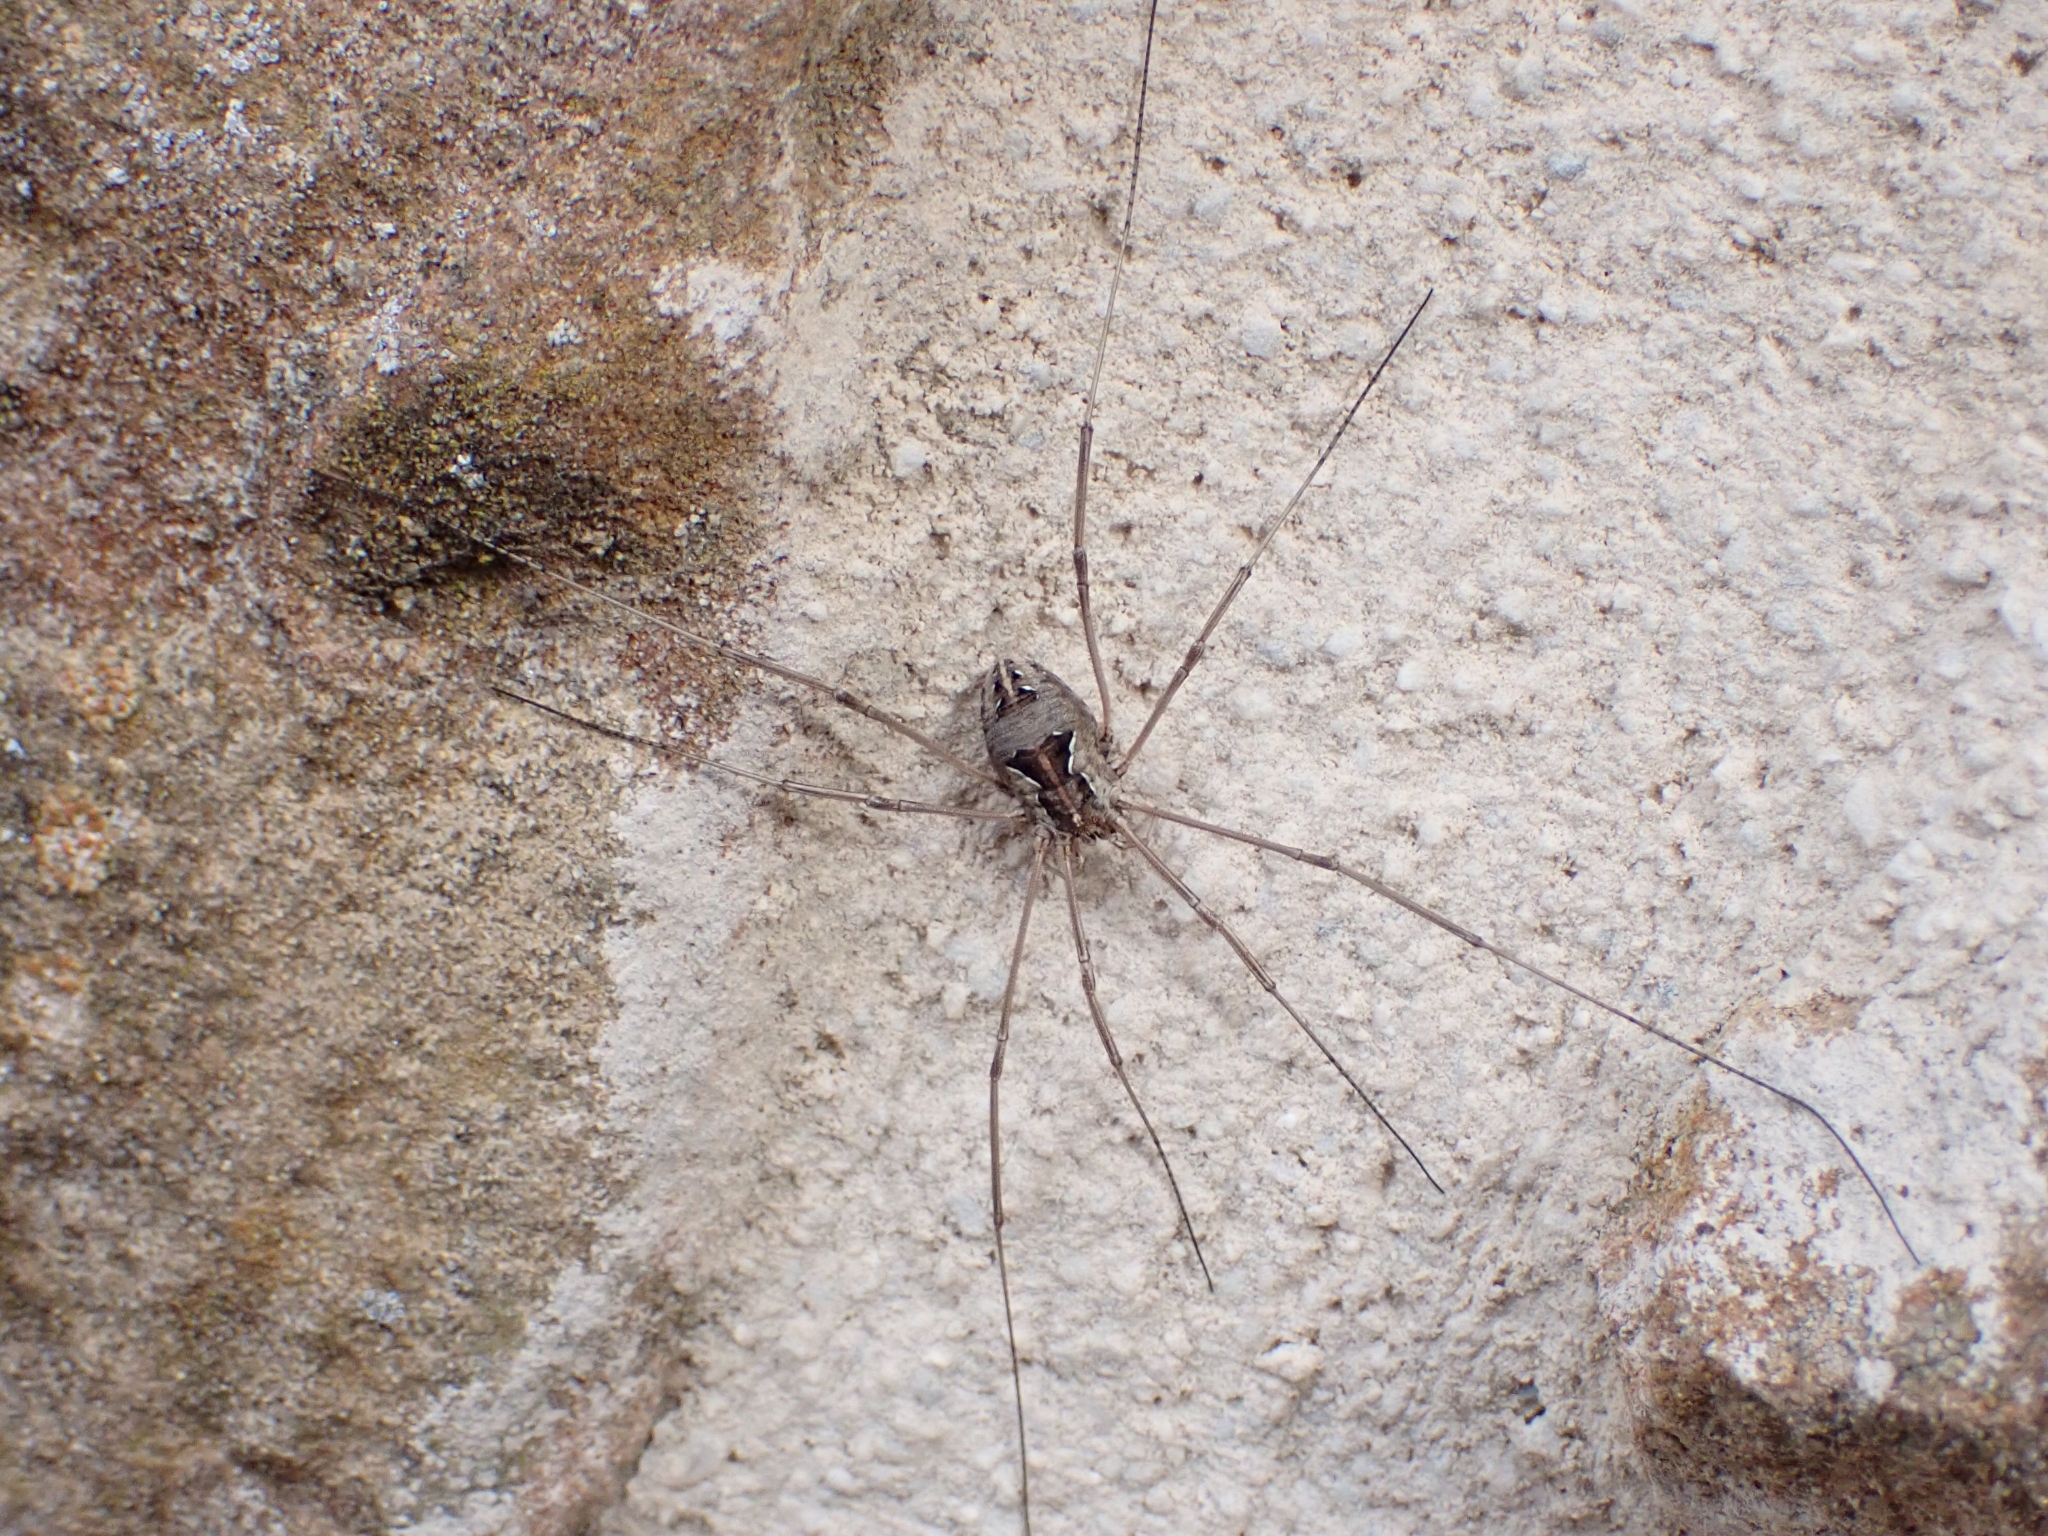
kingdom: Animalia
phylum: Arthropoda
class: Arachnida
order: Opiliones
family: Phalangiidae
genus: Metaphalangium
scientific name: Metaphalangium cirtanum
